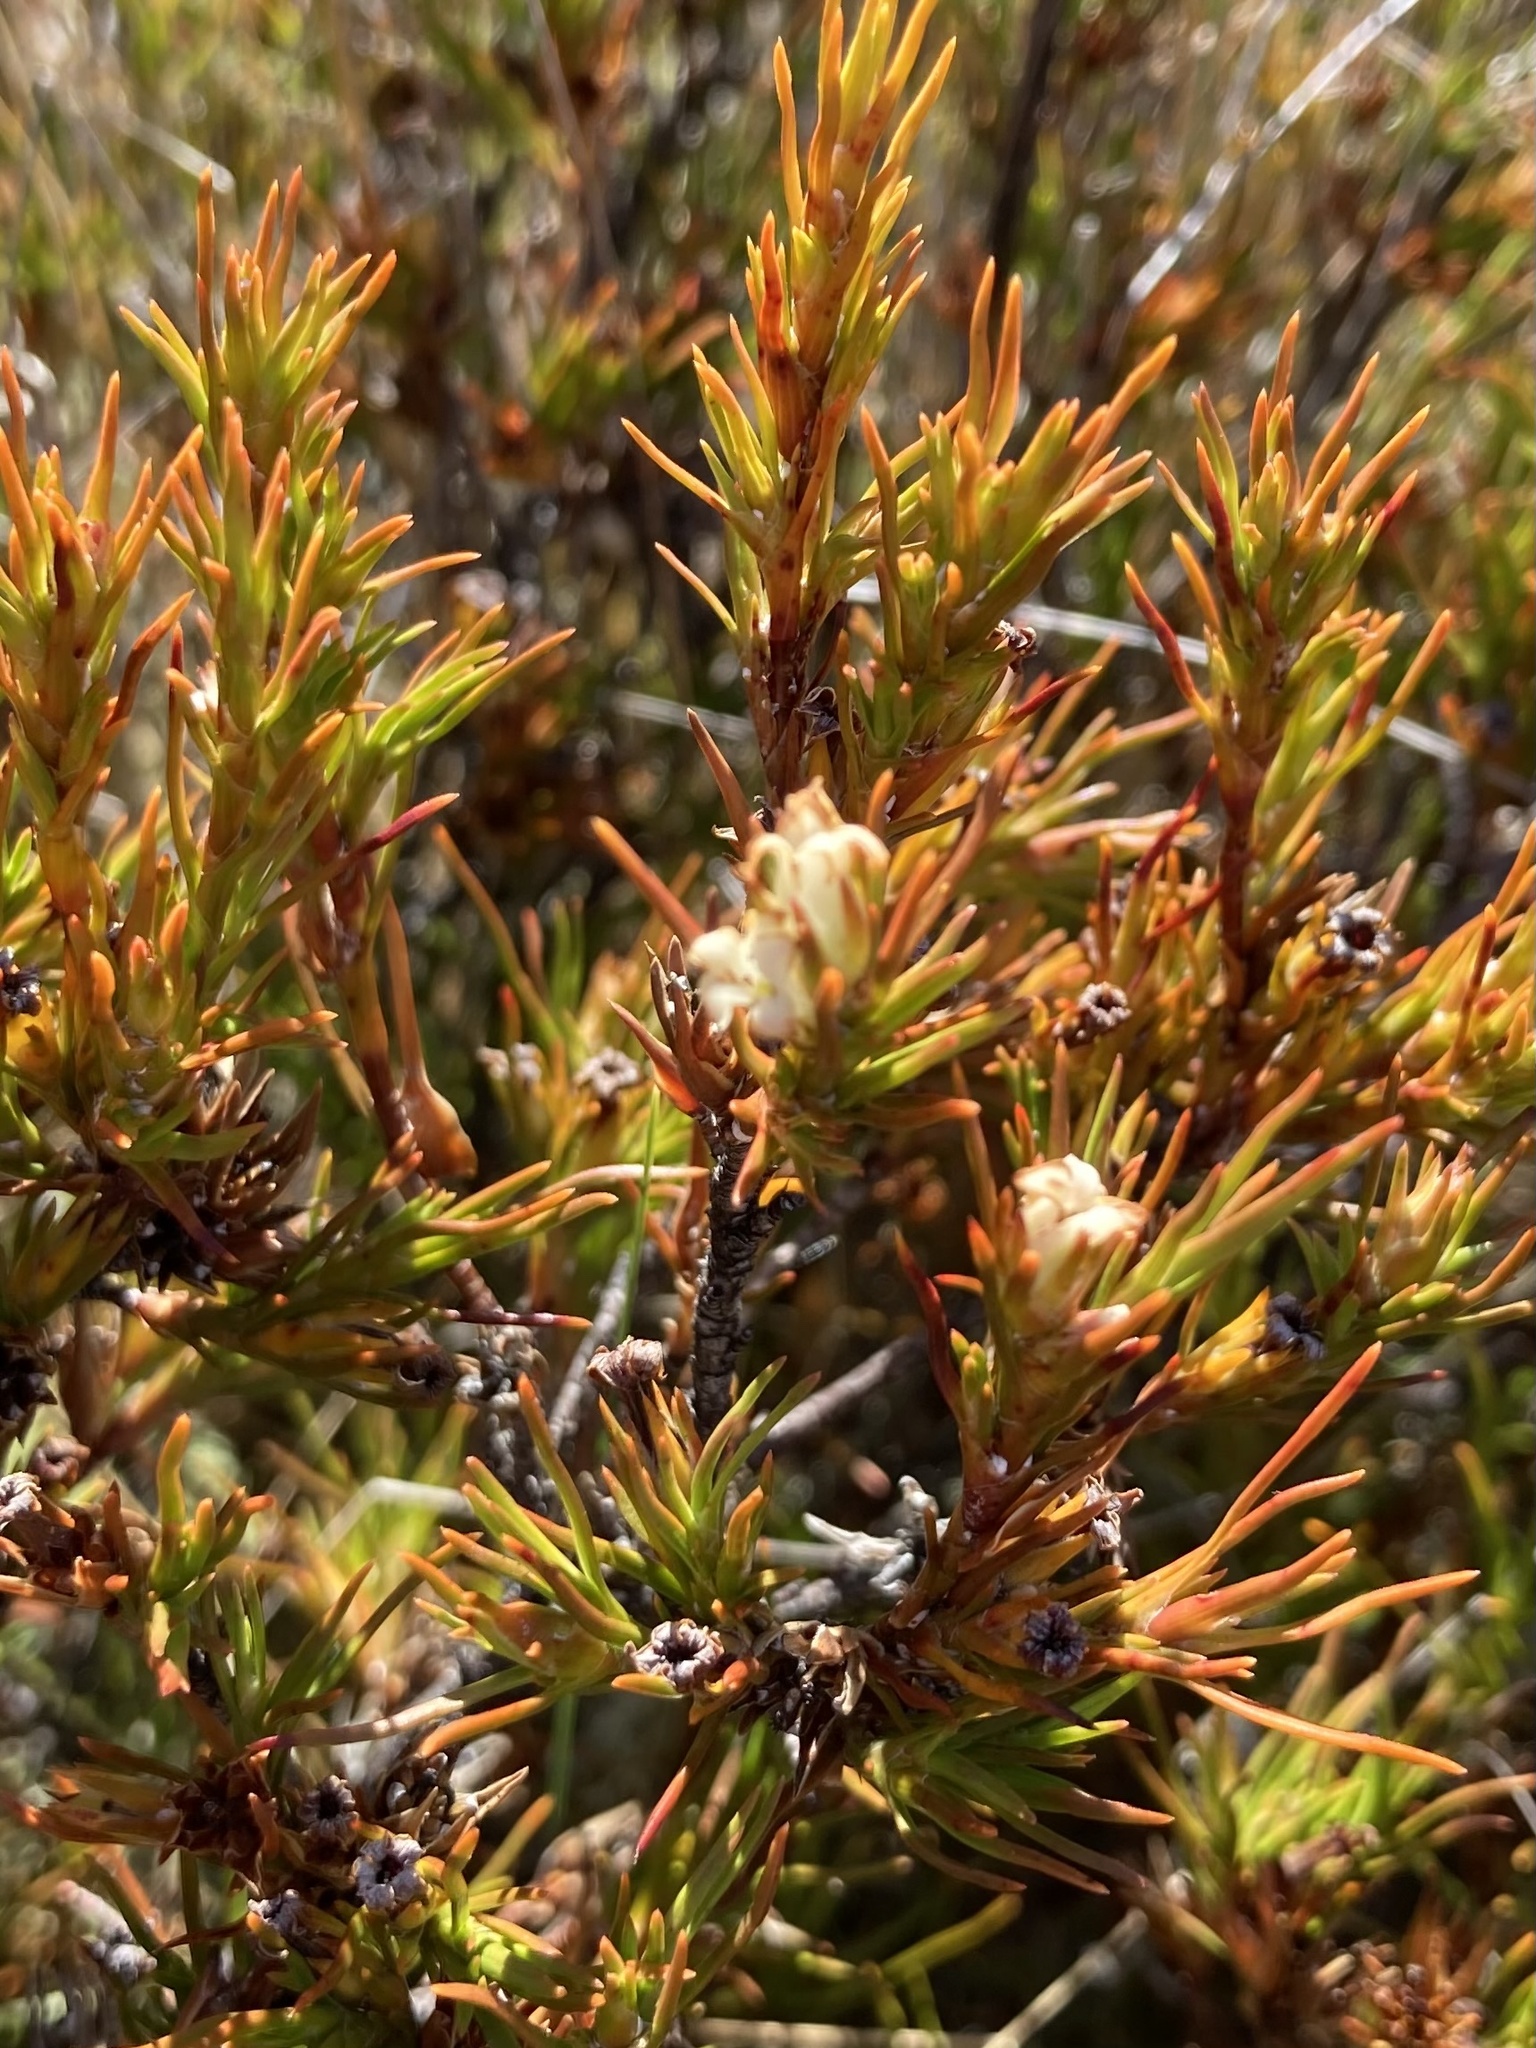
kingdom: Plantae
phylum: Tracheophyta
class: Magnoliopsida
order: Ericales
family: Ericaceae
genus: Dracophyllum
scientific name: Dracophyllum rosmarinifolium
